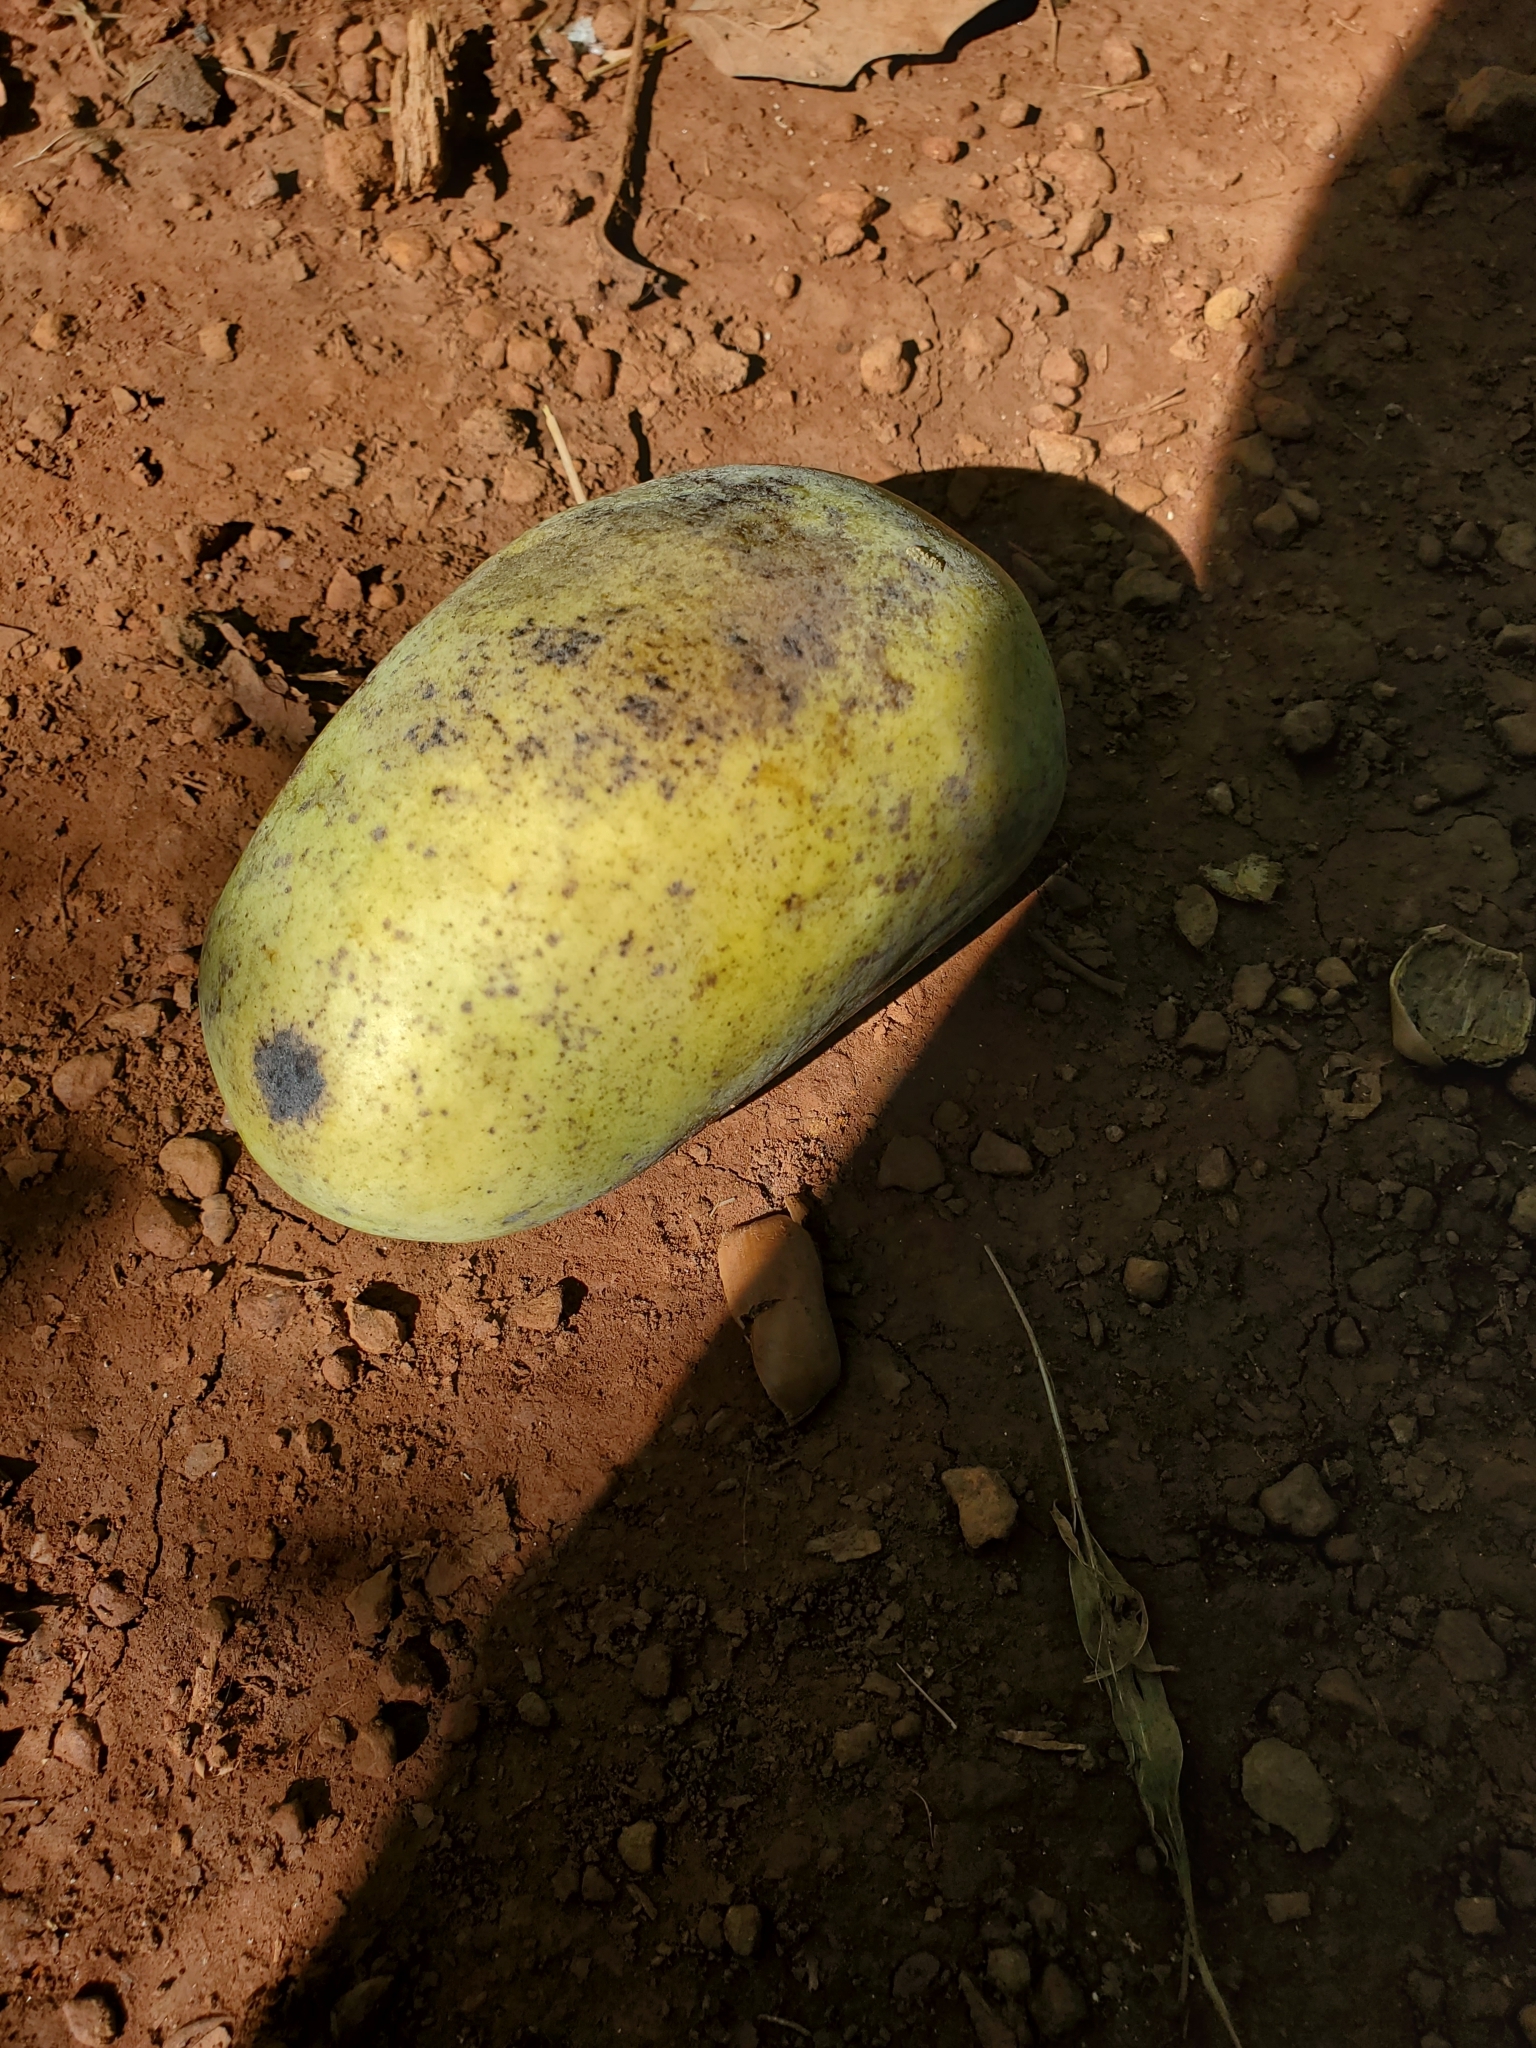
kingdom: Plantae
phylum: Tracheophyta
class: Magnoliopsida
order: Magnoliales
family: Annonaceae
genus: Asimina
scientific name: Asimina triloba
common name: Dog-banana
